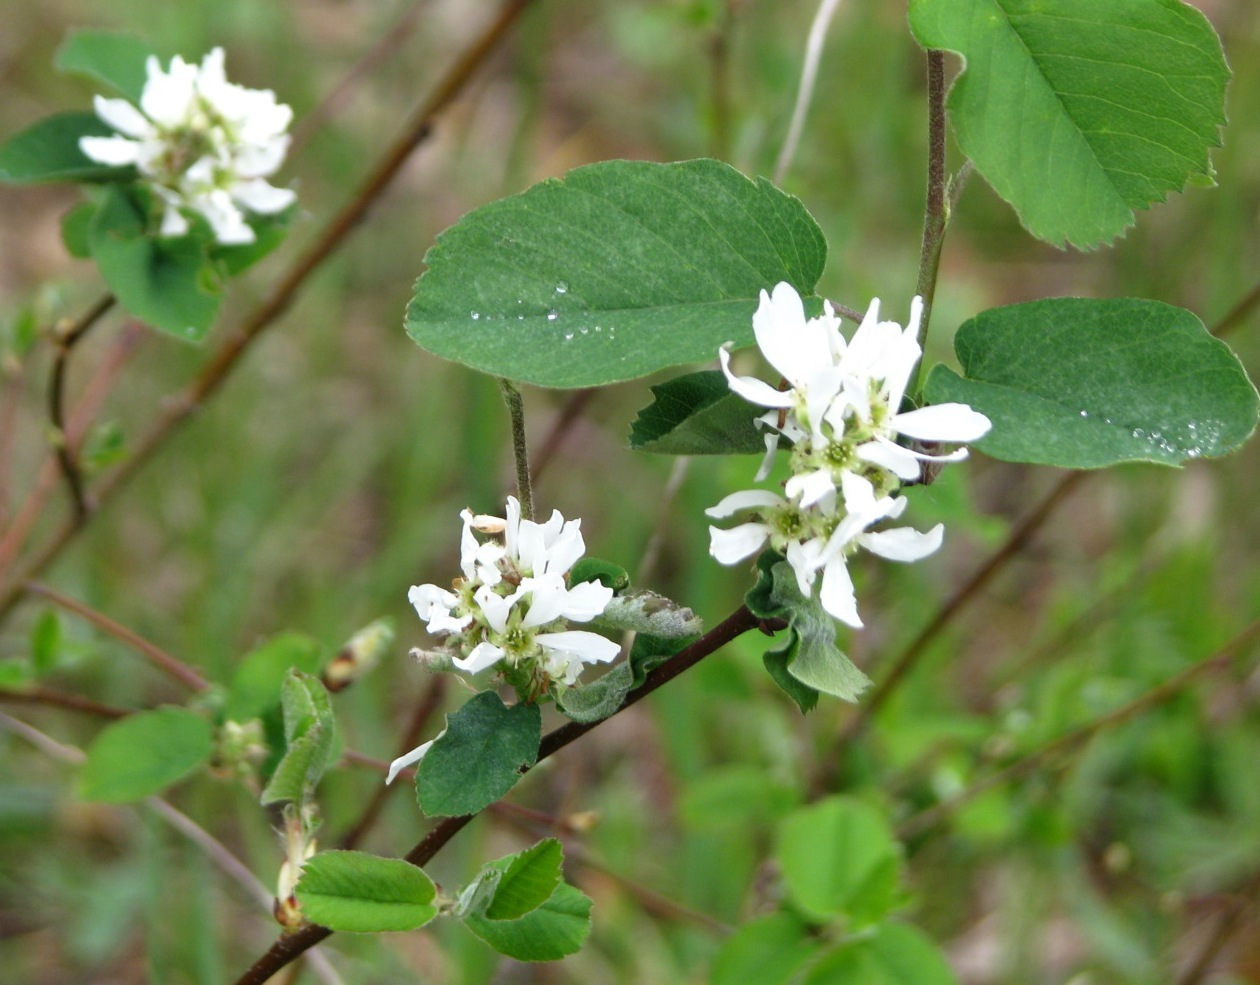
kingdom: Plantae
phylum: Tracheophyta
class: Magnoliopsida
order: Rosales
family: Rosaceae
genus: Amelanchier
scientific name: Amelanchier alnifolia
